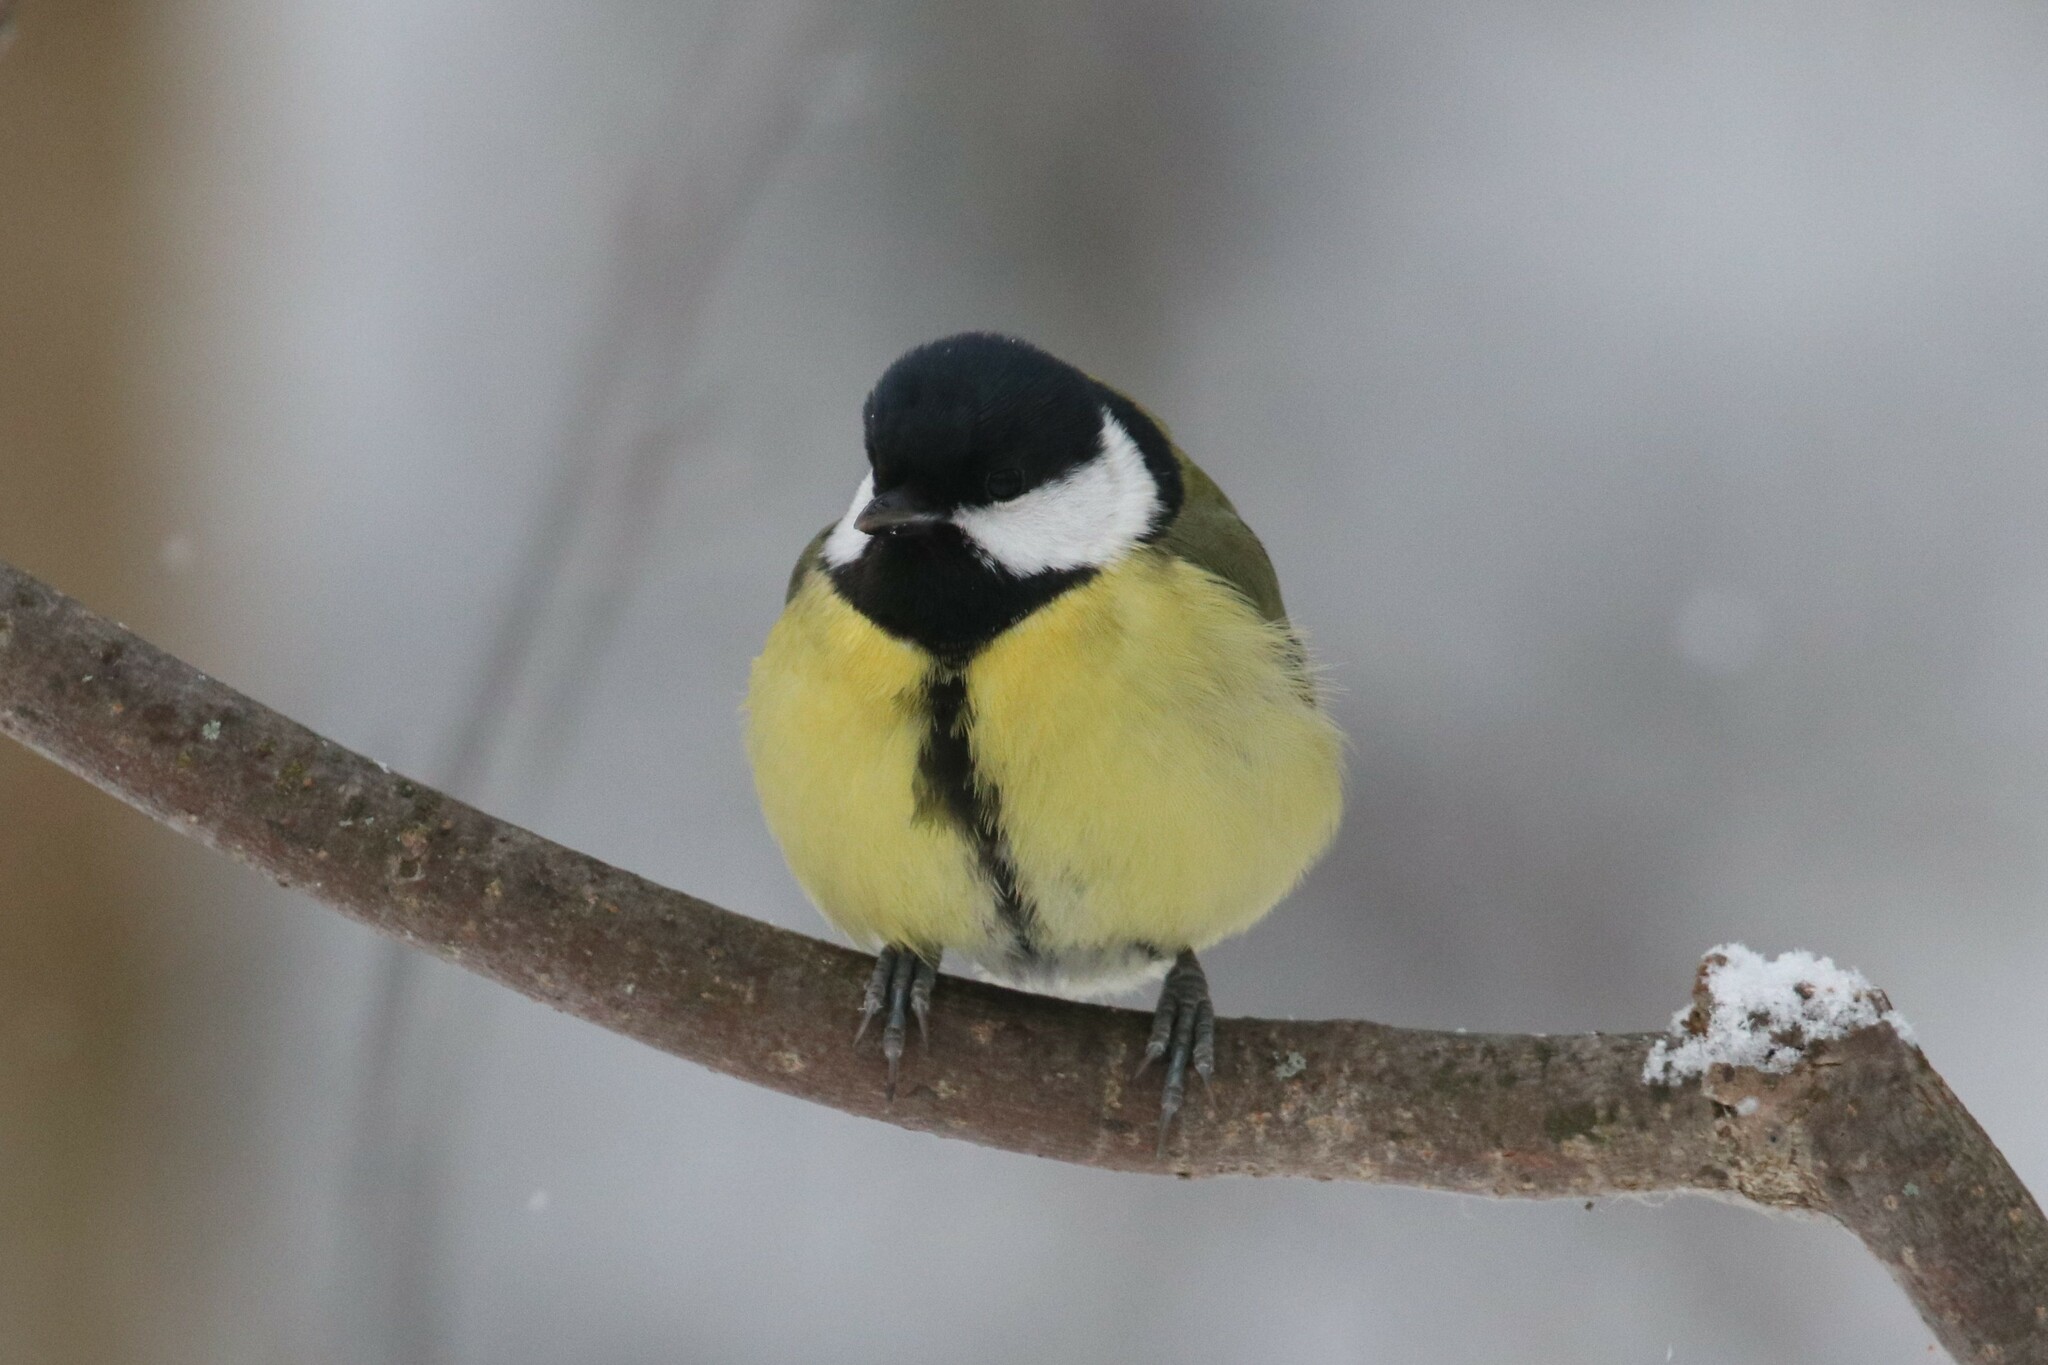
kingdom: Animalia
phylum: Chordata
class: Aves
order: Passeriformes
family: Paridae
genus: Parus
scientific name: Parus major
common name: Great tit
